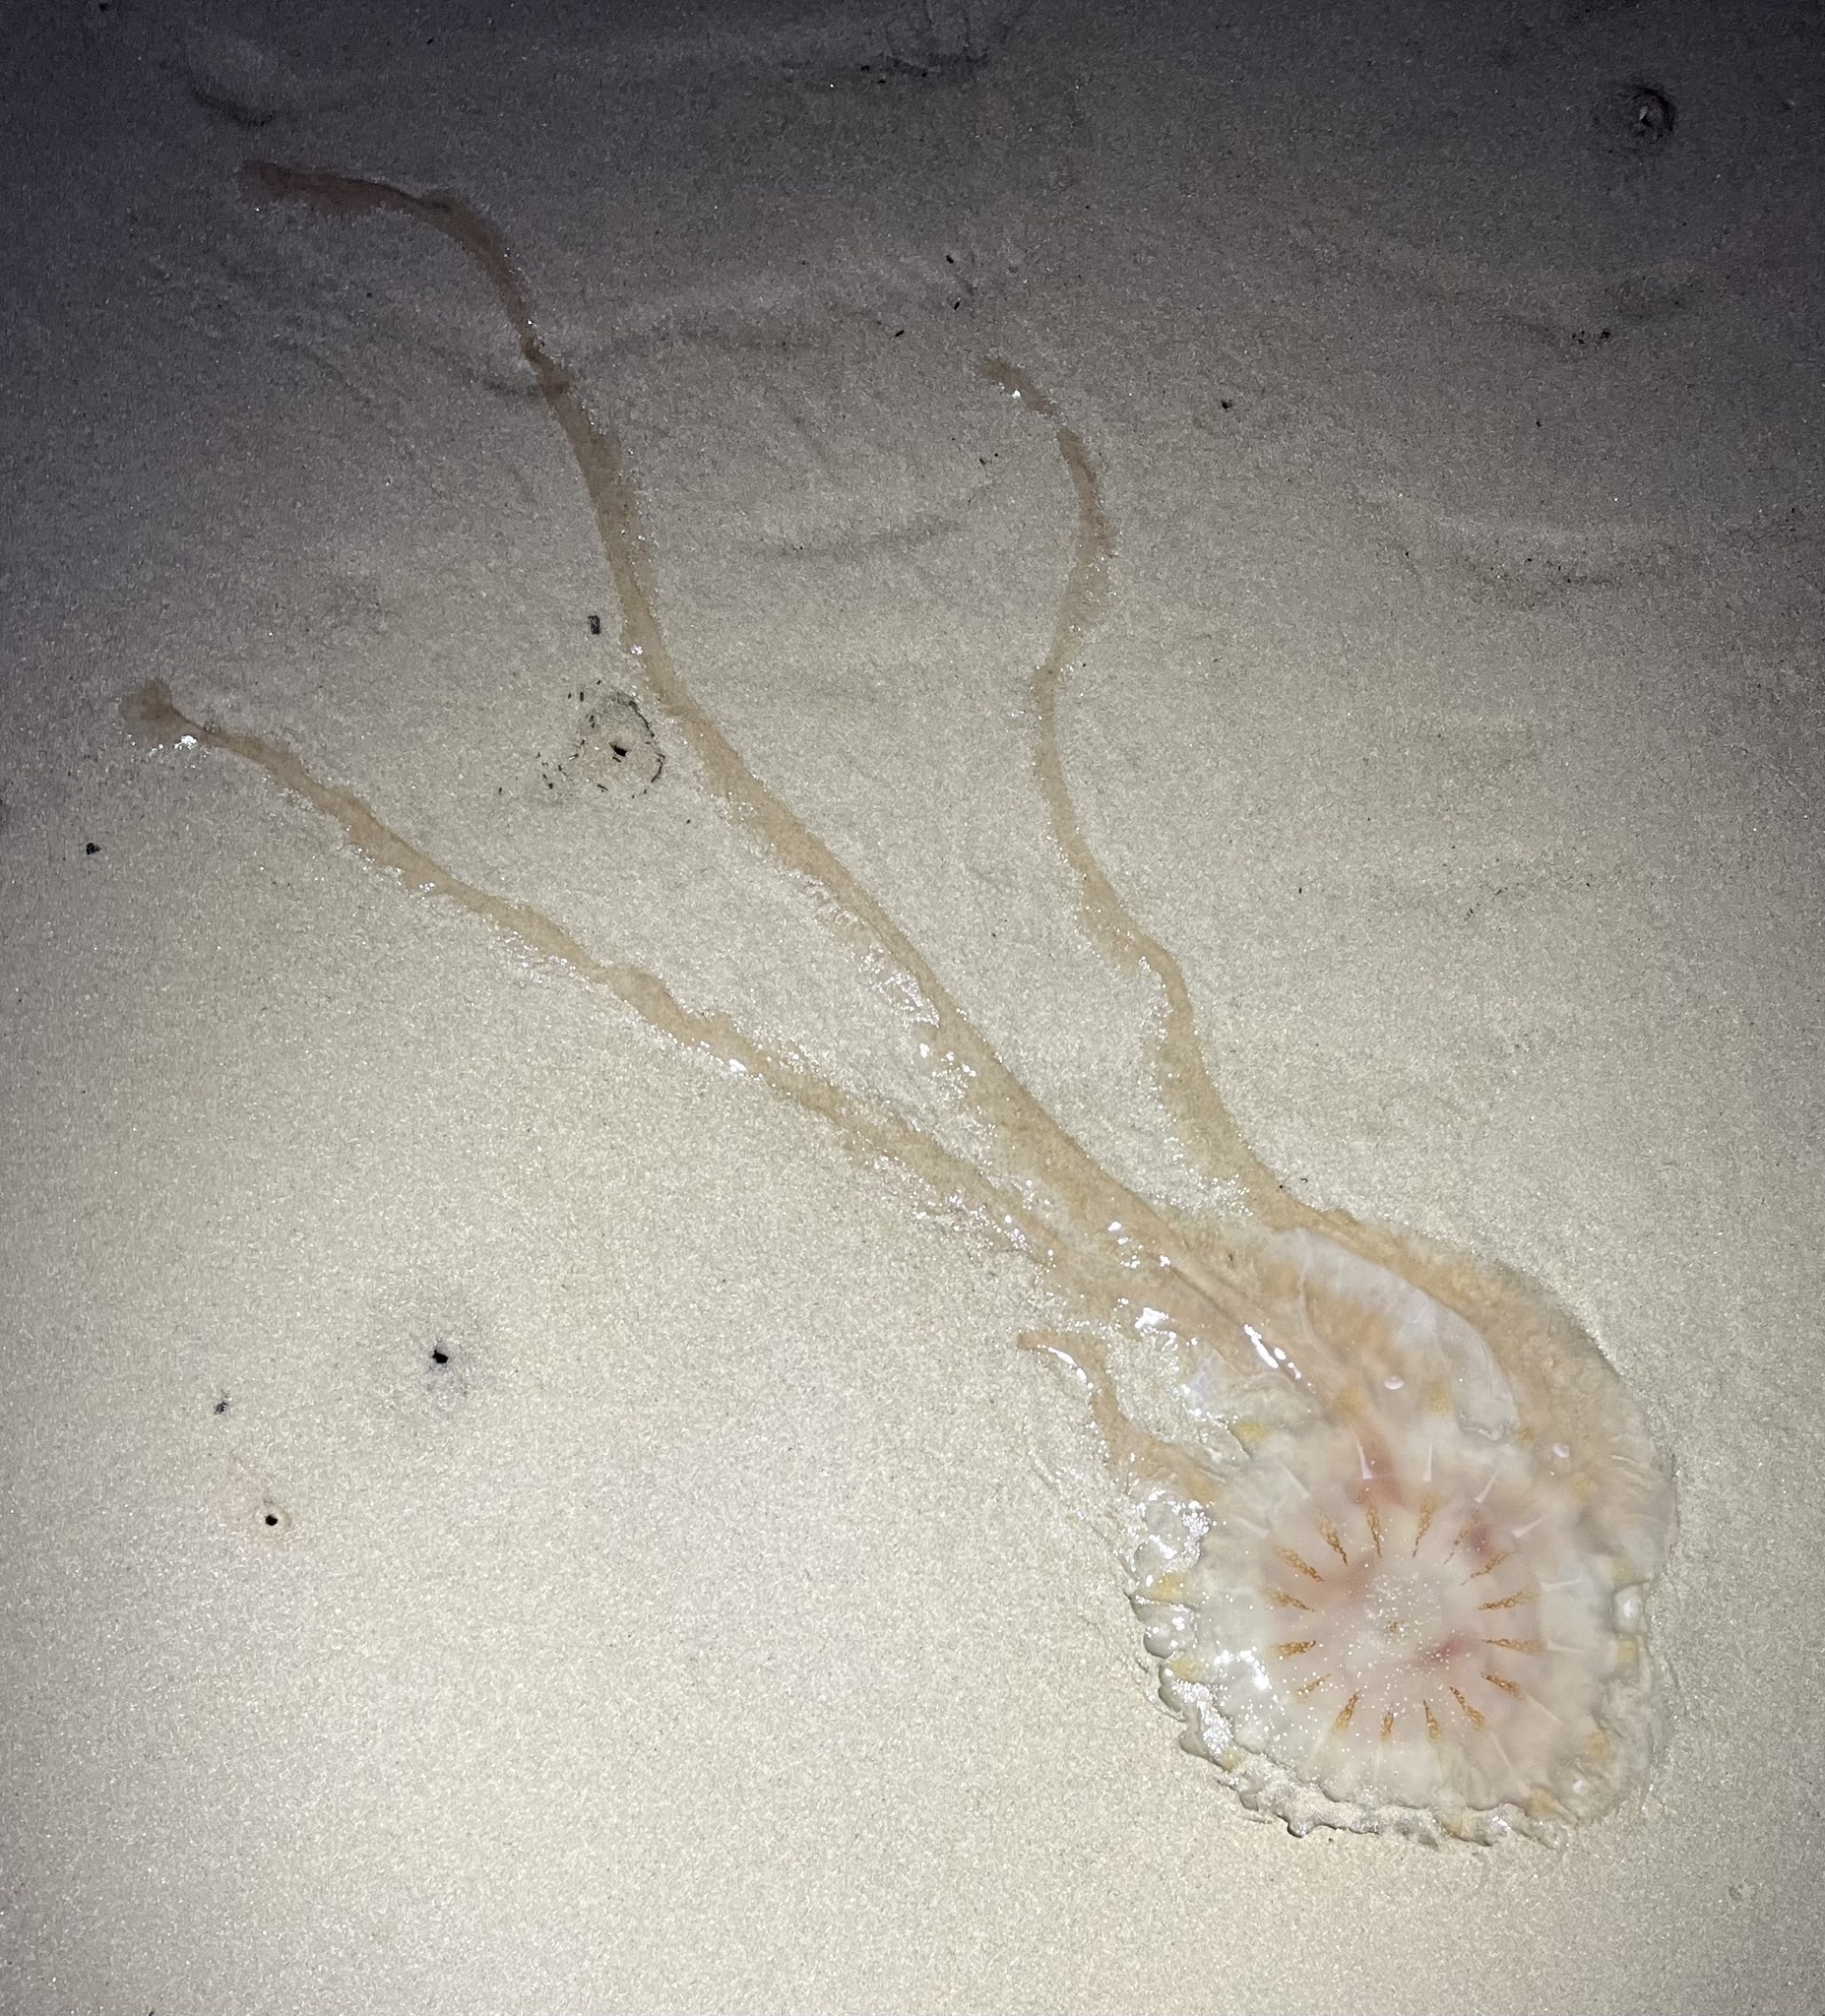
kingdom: Animalia
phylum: Cnidaria
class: Scyphozoa
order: Semaeostomeae
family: Pelagiidae
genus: Chrysaora
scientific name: Chrysaora chesapeakei
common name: Bay nettle
